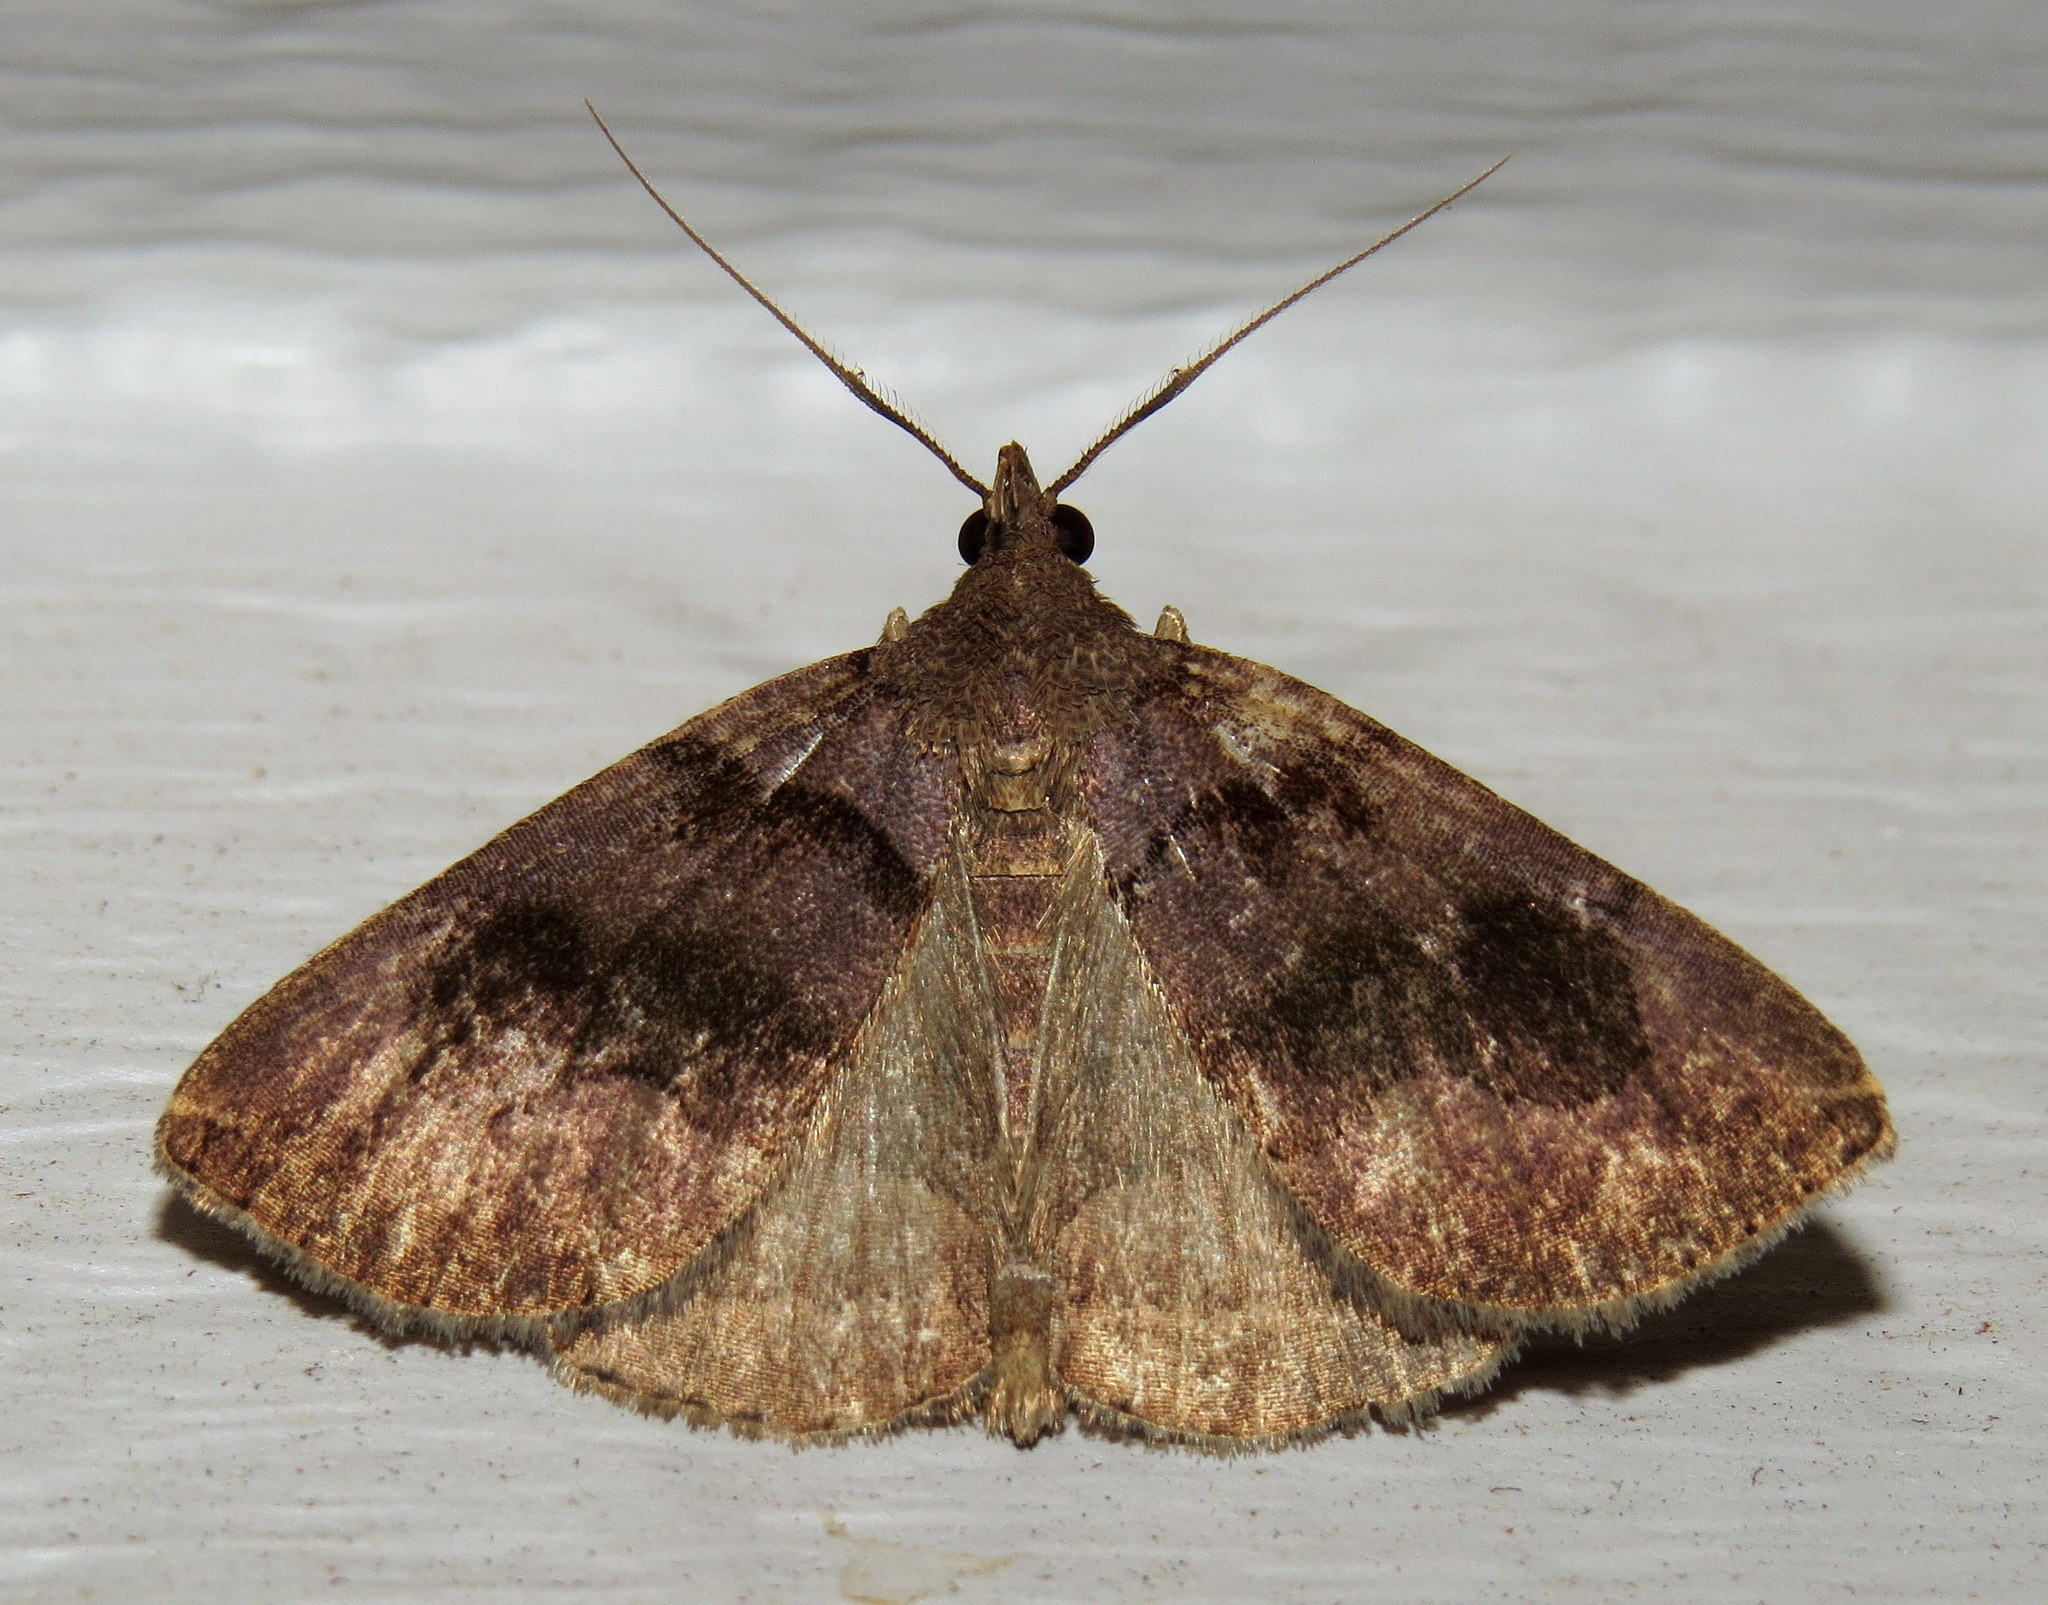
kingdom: Animalia
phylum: Arthropoda
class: Insecta
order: Lepidoptera
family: Erebidae
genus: Zanclognatha
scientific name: Zanclognatha laevigata
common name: Variable fan-foot
